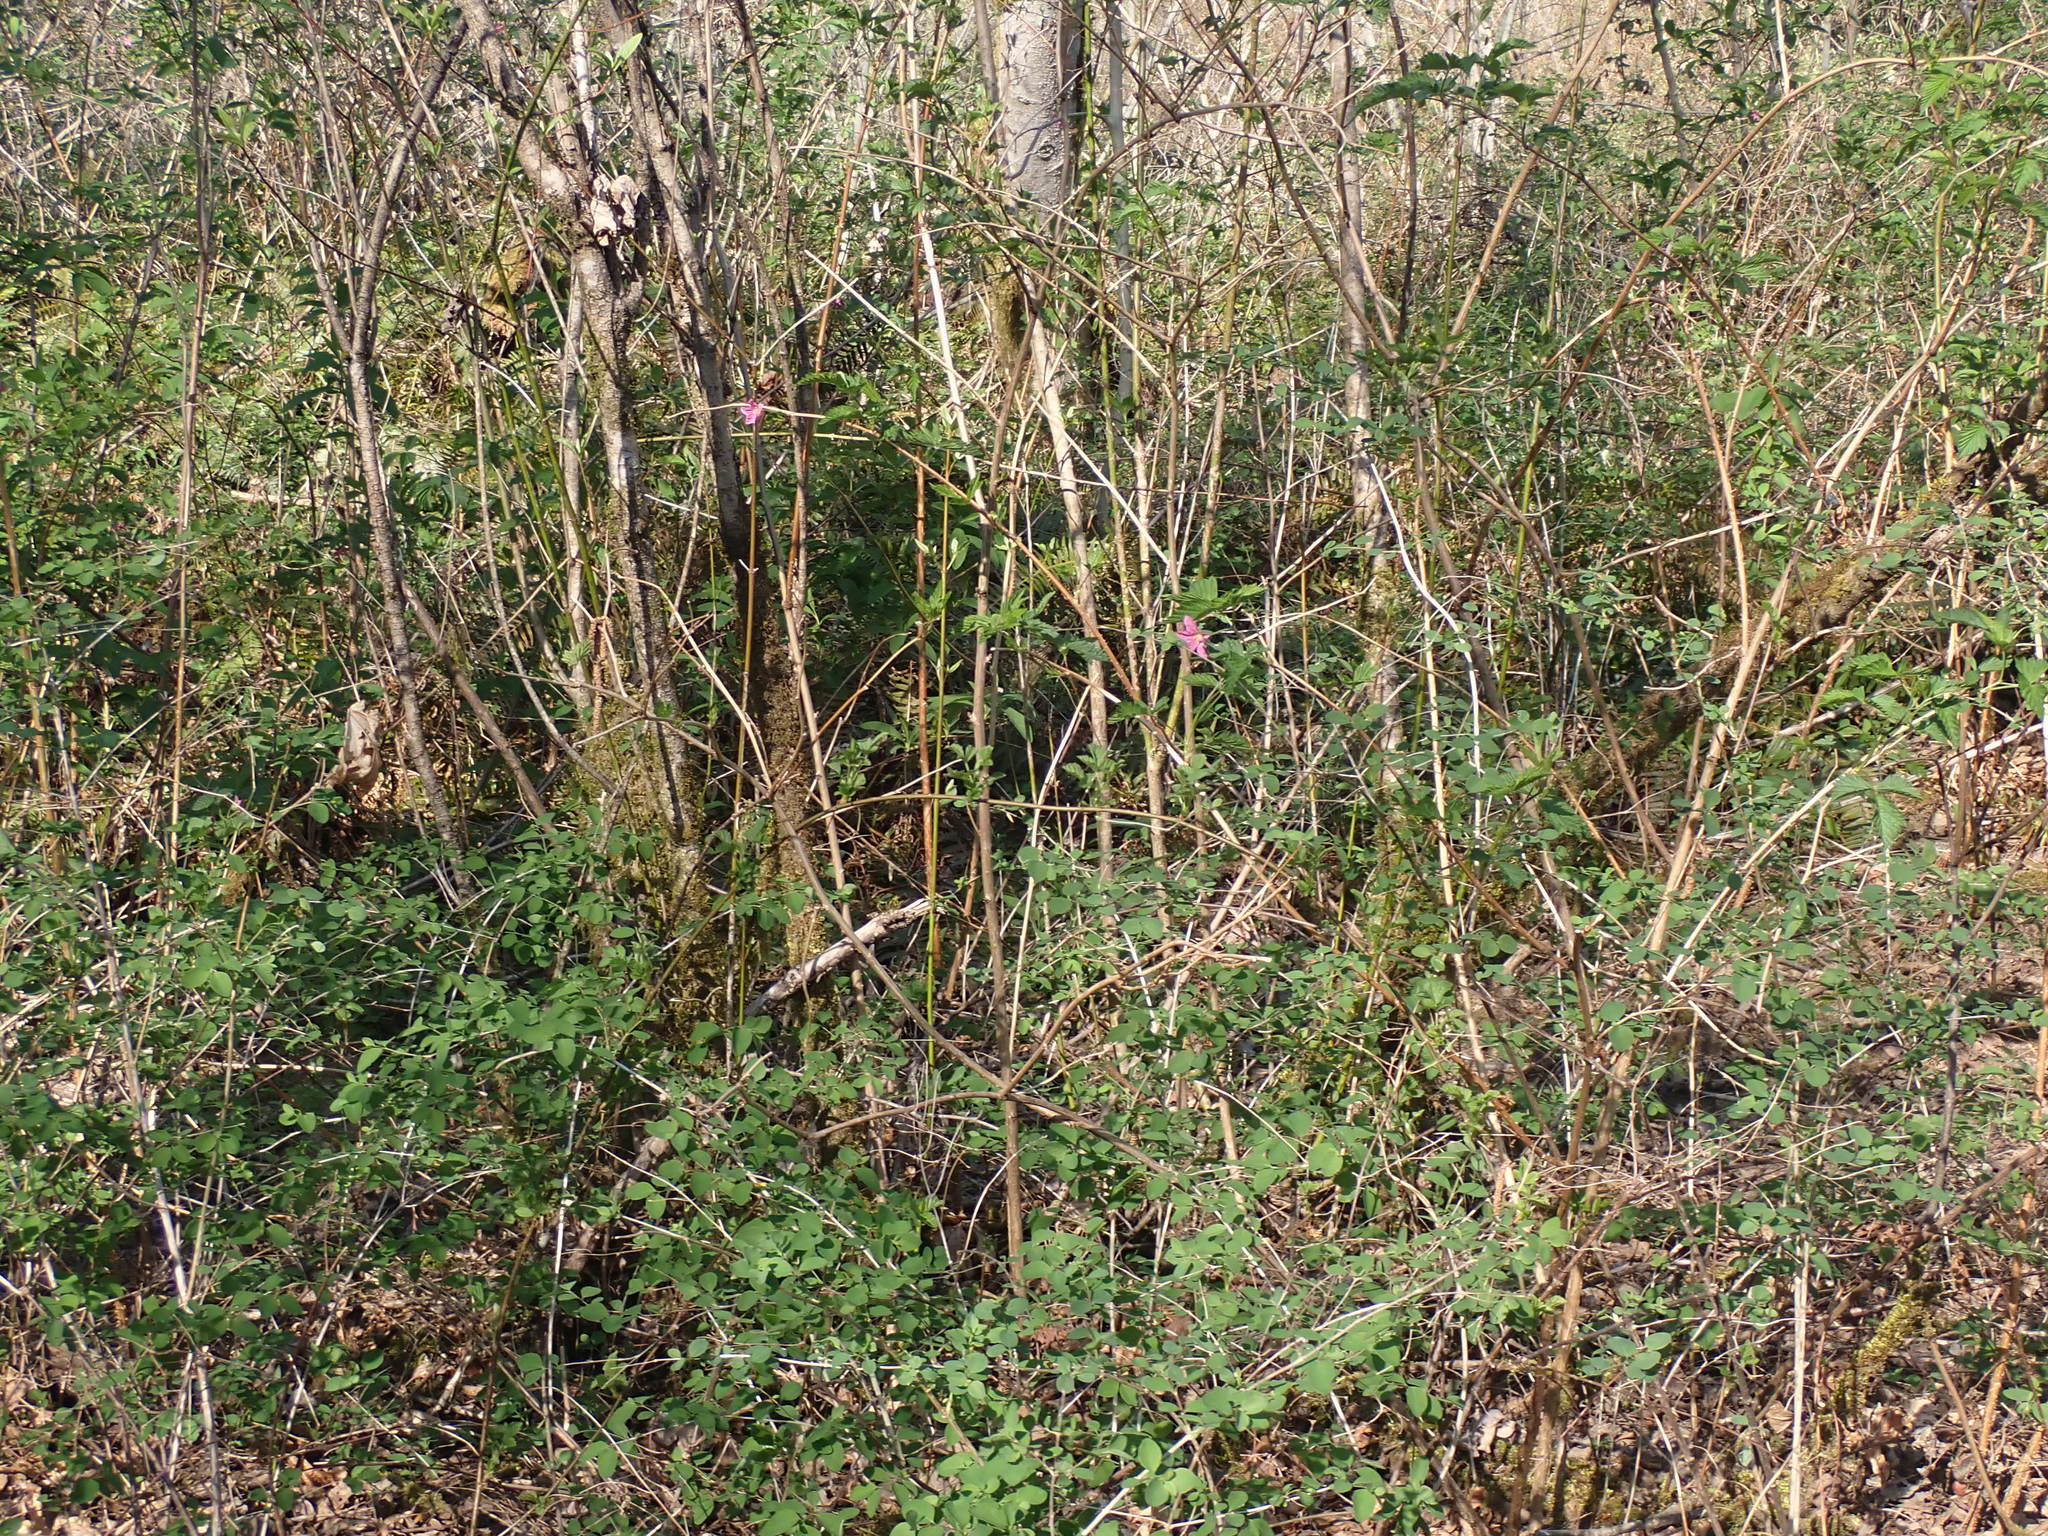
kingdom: Plantae
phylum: Tracheophyta
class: Magnoliopsida
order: Rosales
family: Rosaceae
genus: Rubus
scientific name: Rubus spectabilis
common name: Salmonberry
